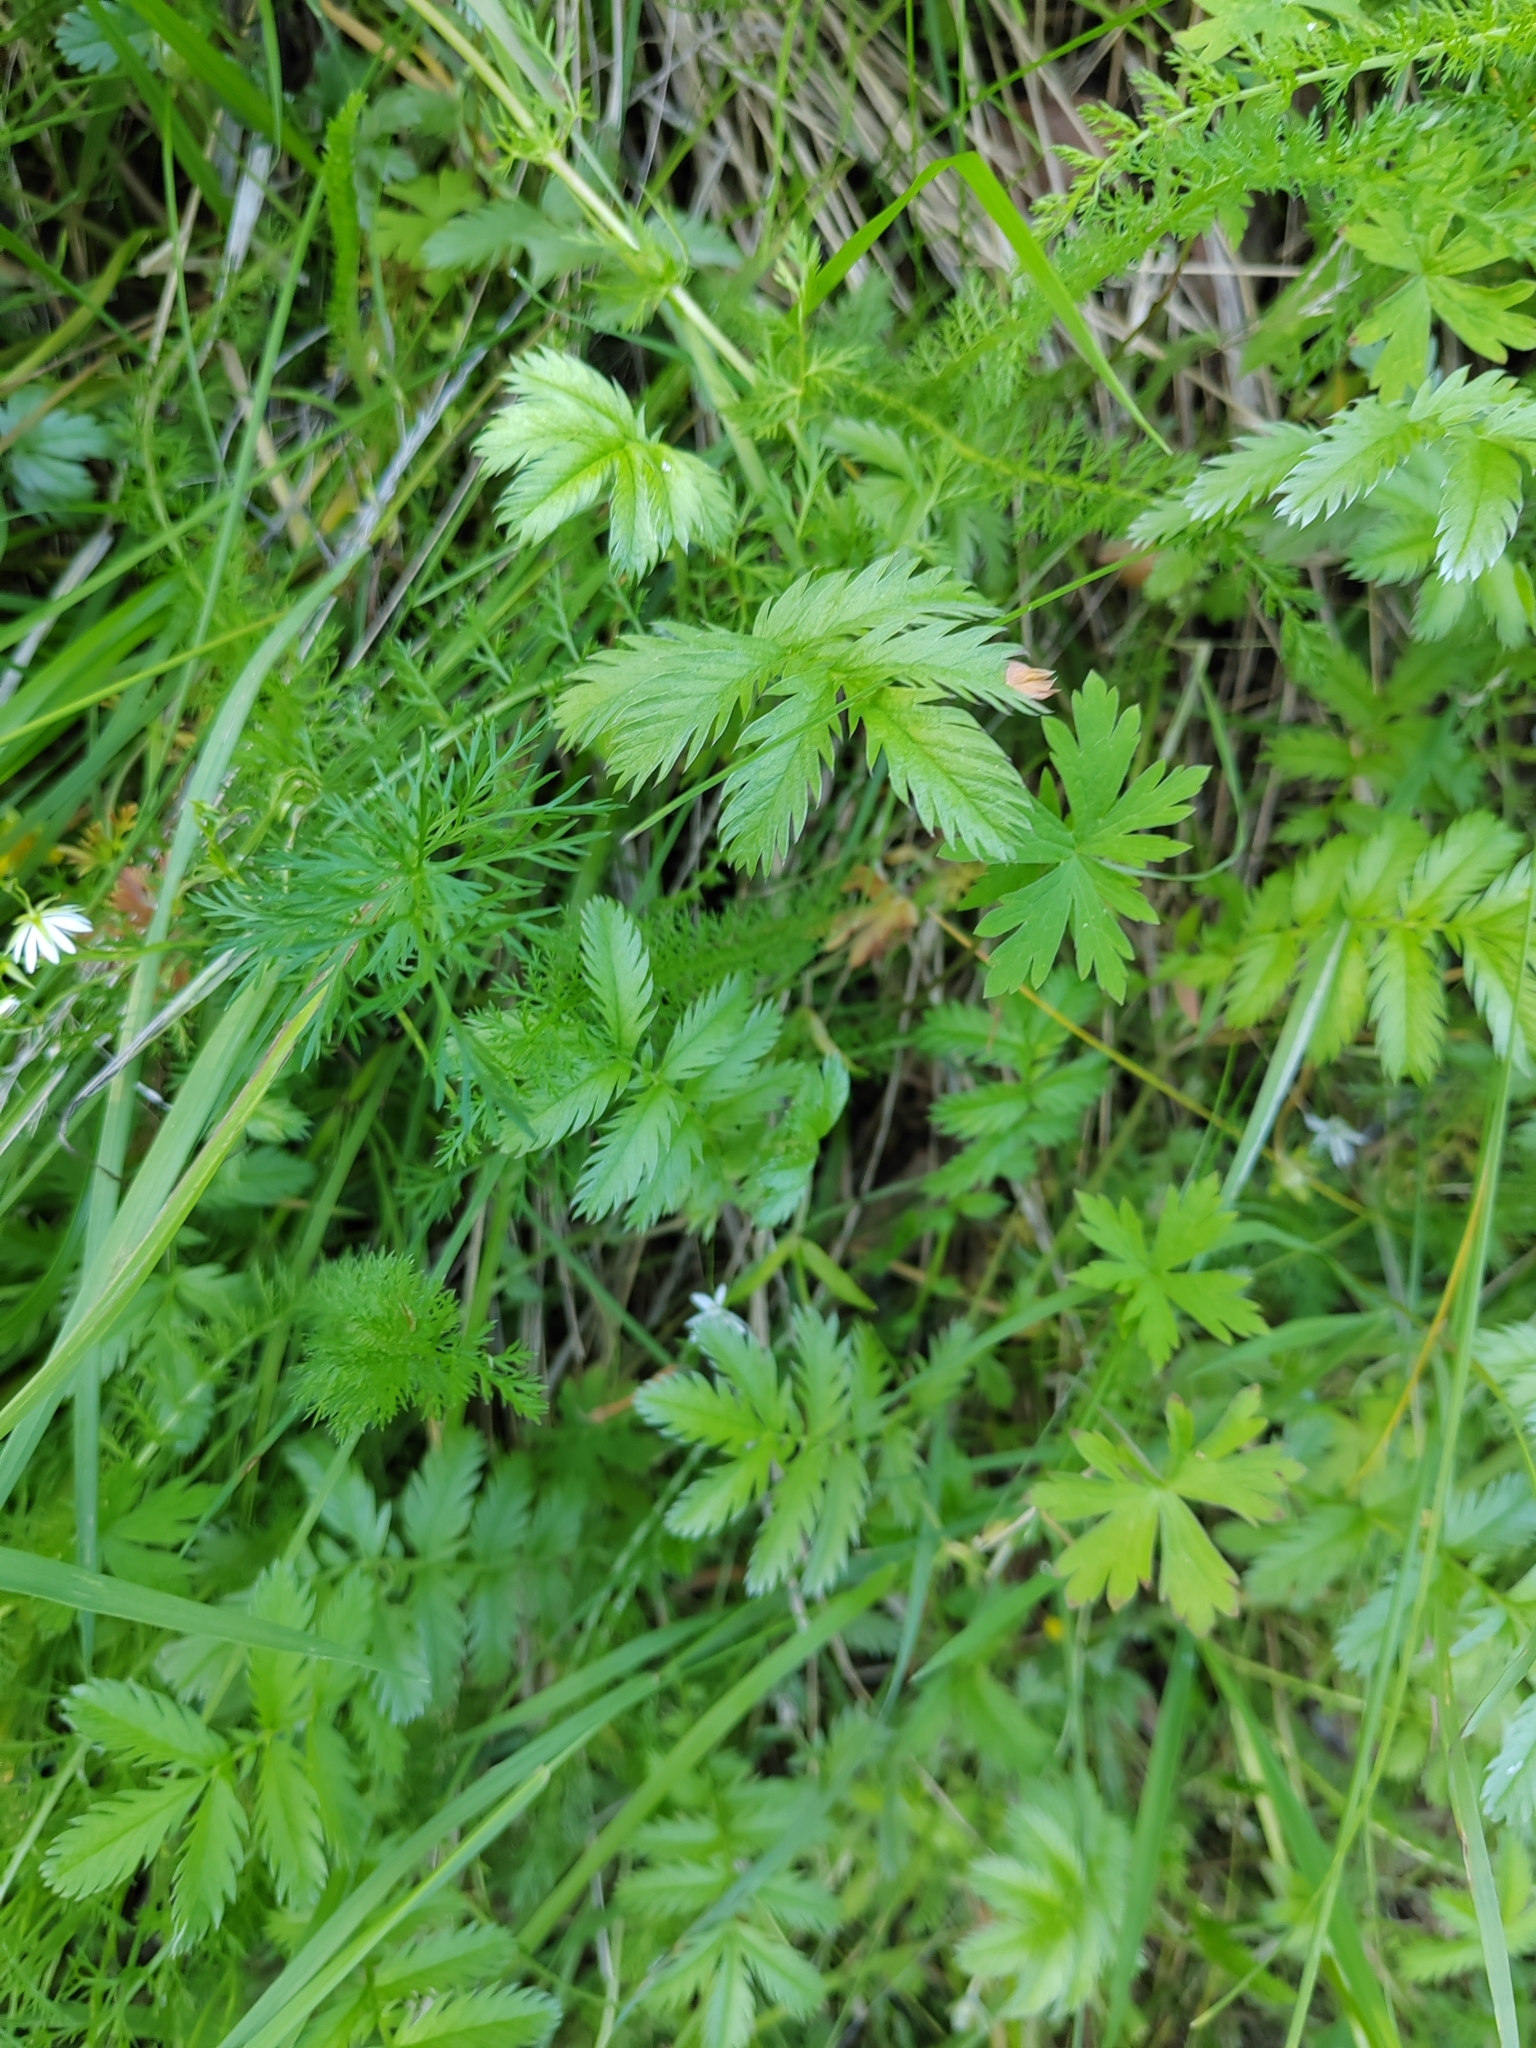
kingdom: Plantae
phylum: Tracheophyta
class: Magnoliopsida
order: Rosales
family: Rosaceae
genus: Argentina
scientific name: Argentina anserina
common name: Common silverweed
